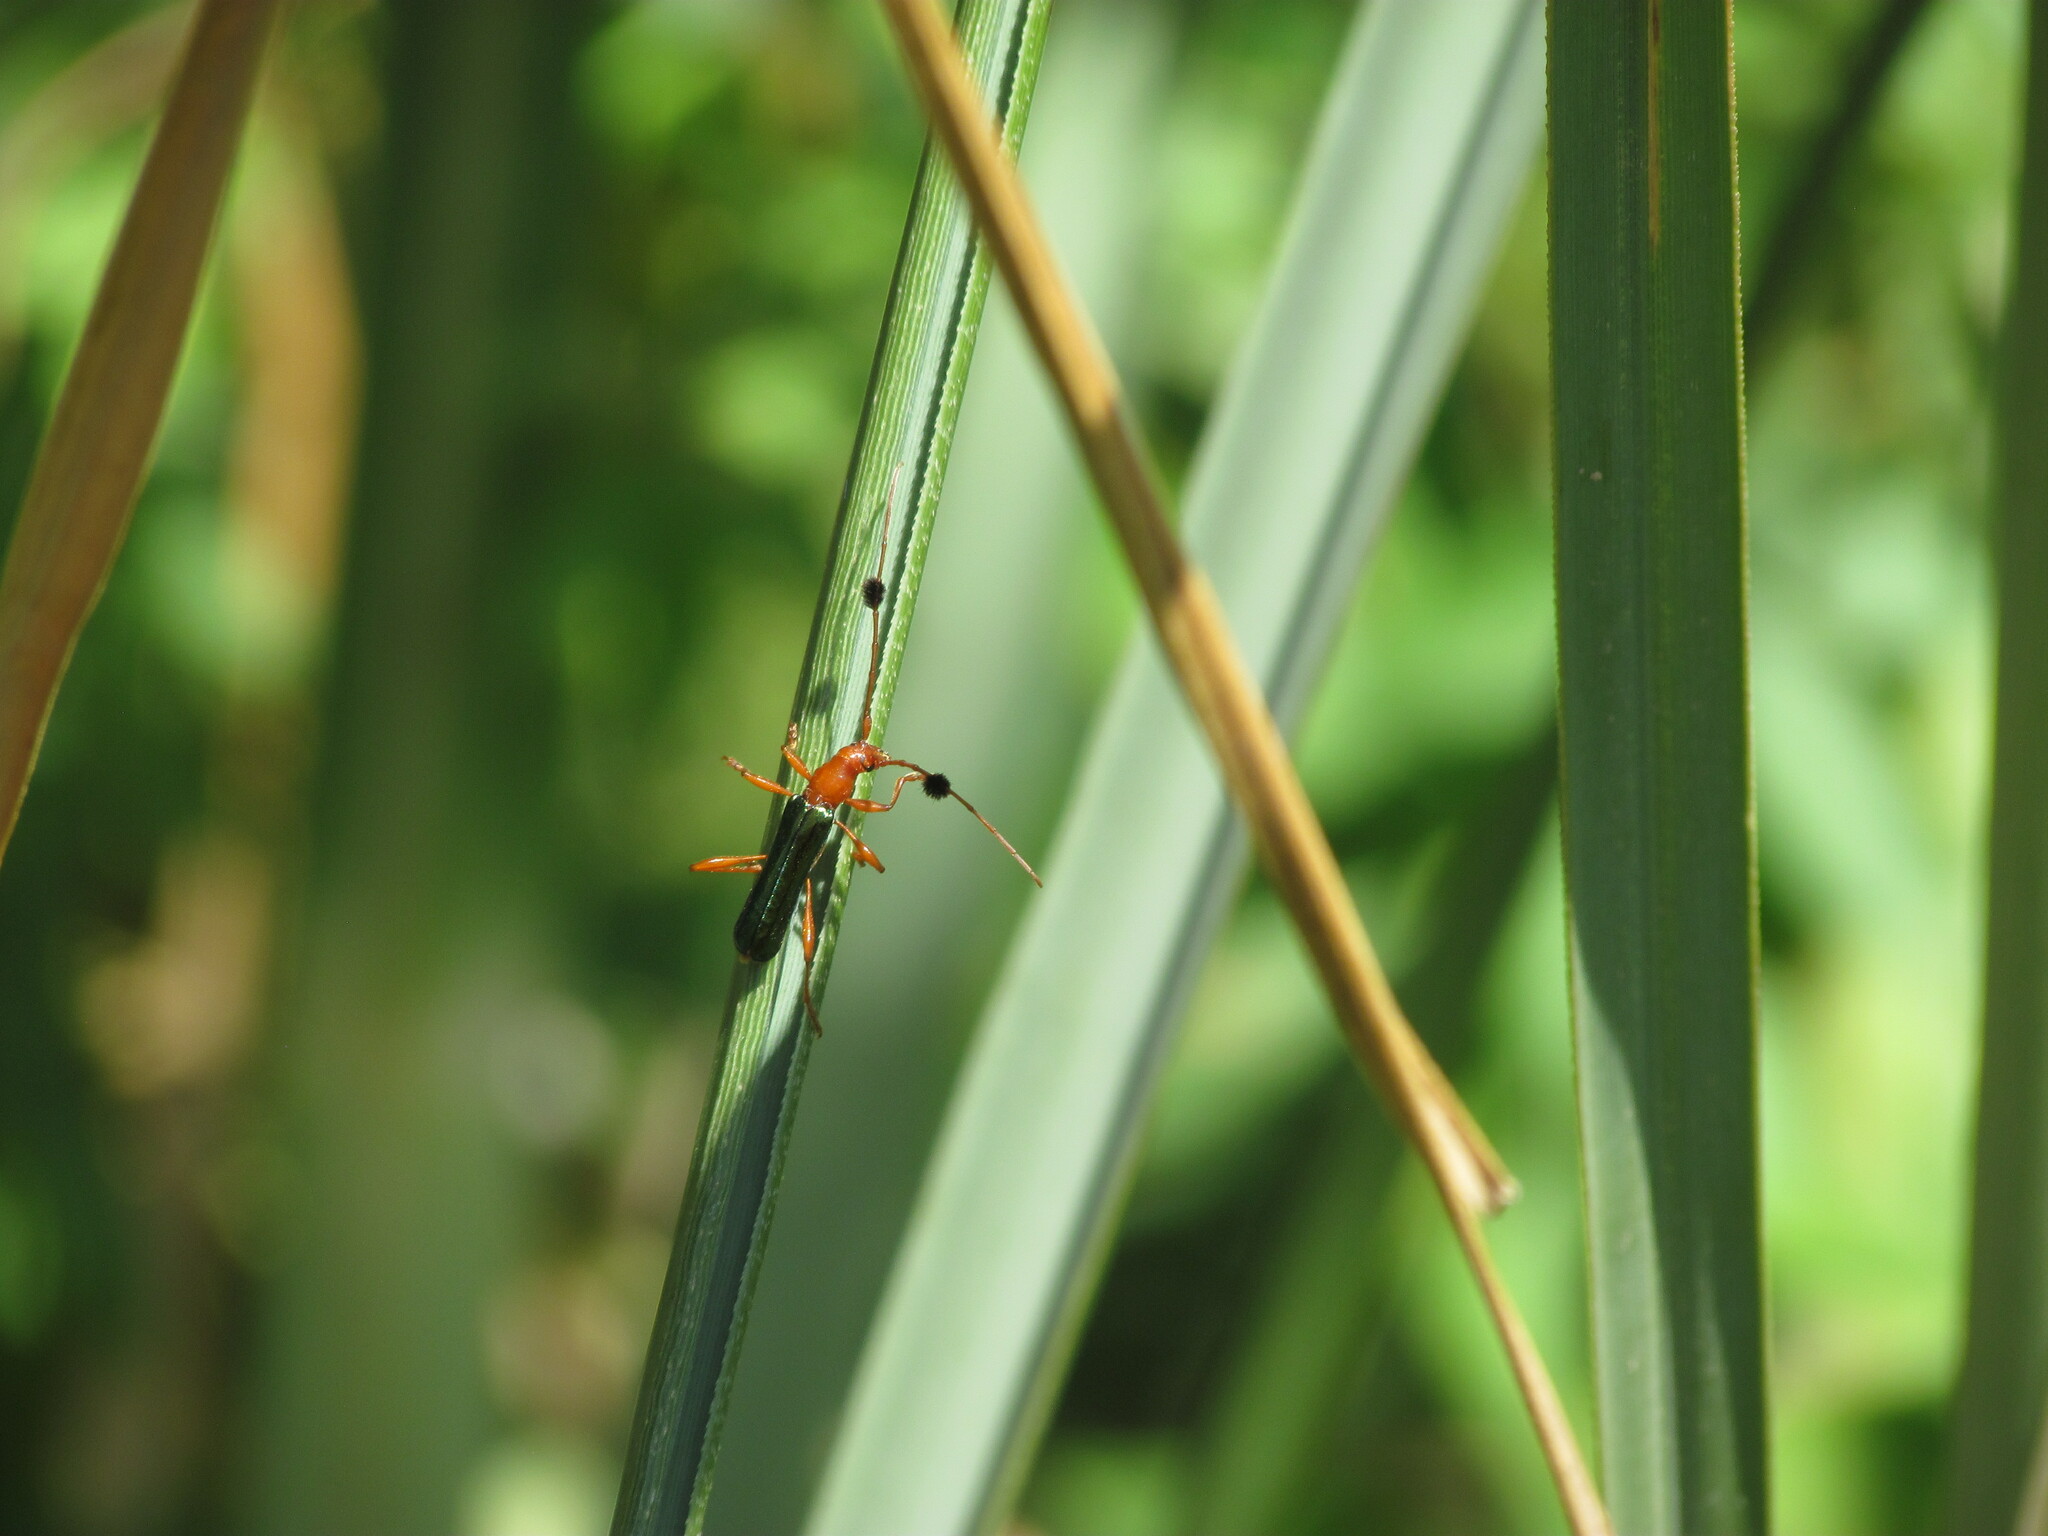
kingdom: Animalia
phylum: Arthropoda
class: Insecta
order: Coleoptera
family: Cerambycidae
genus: Paromoeocerus
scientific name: Paromoeocerus barbicornis
